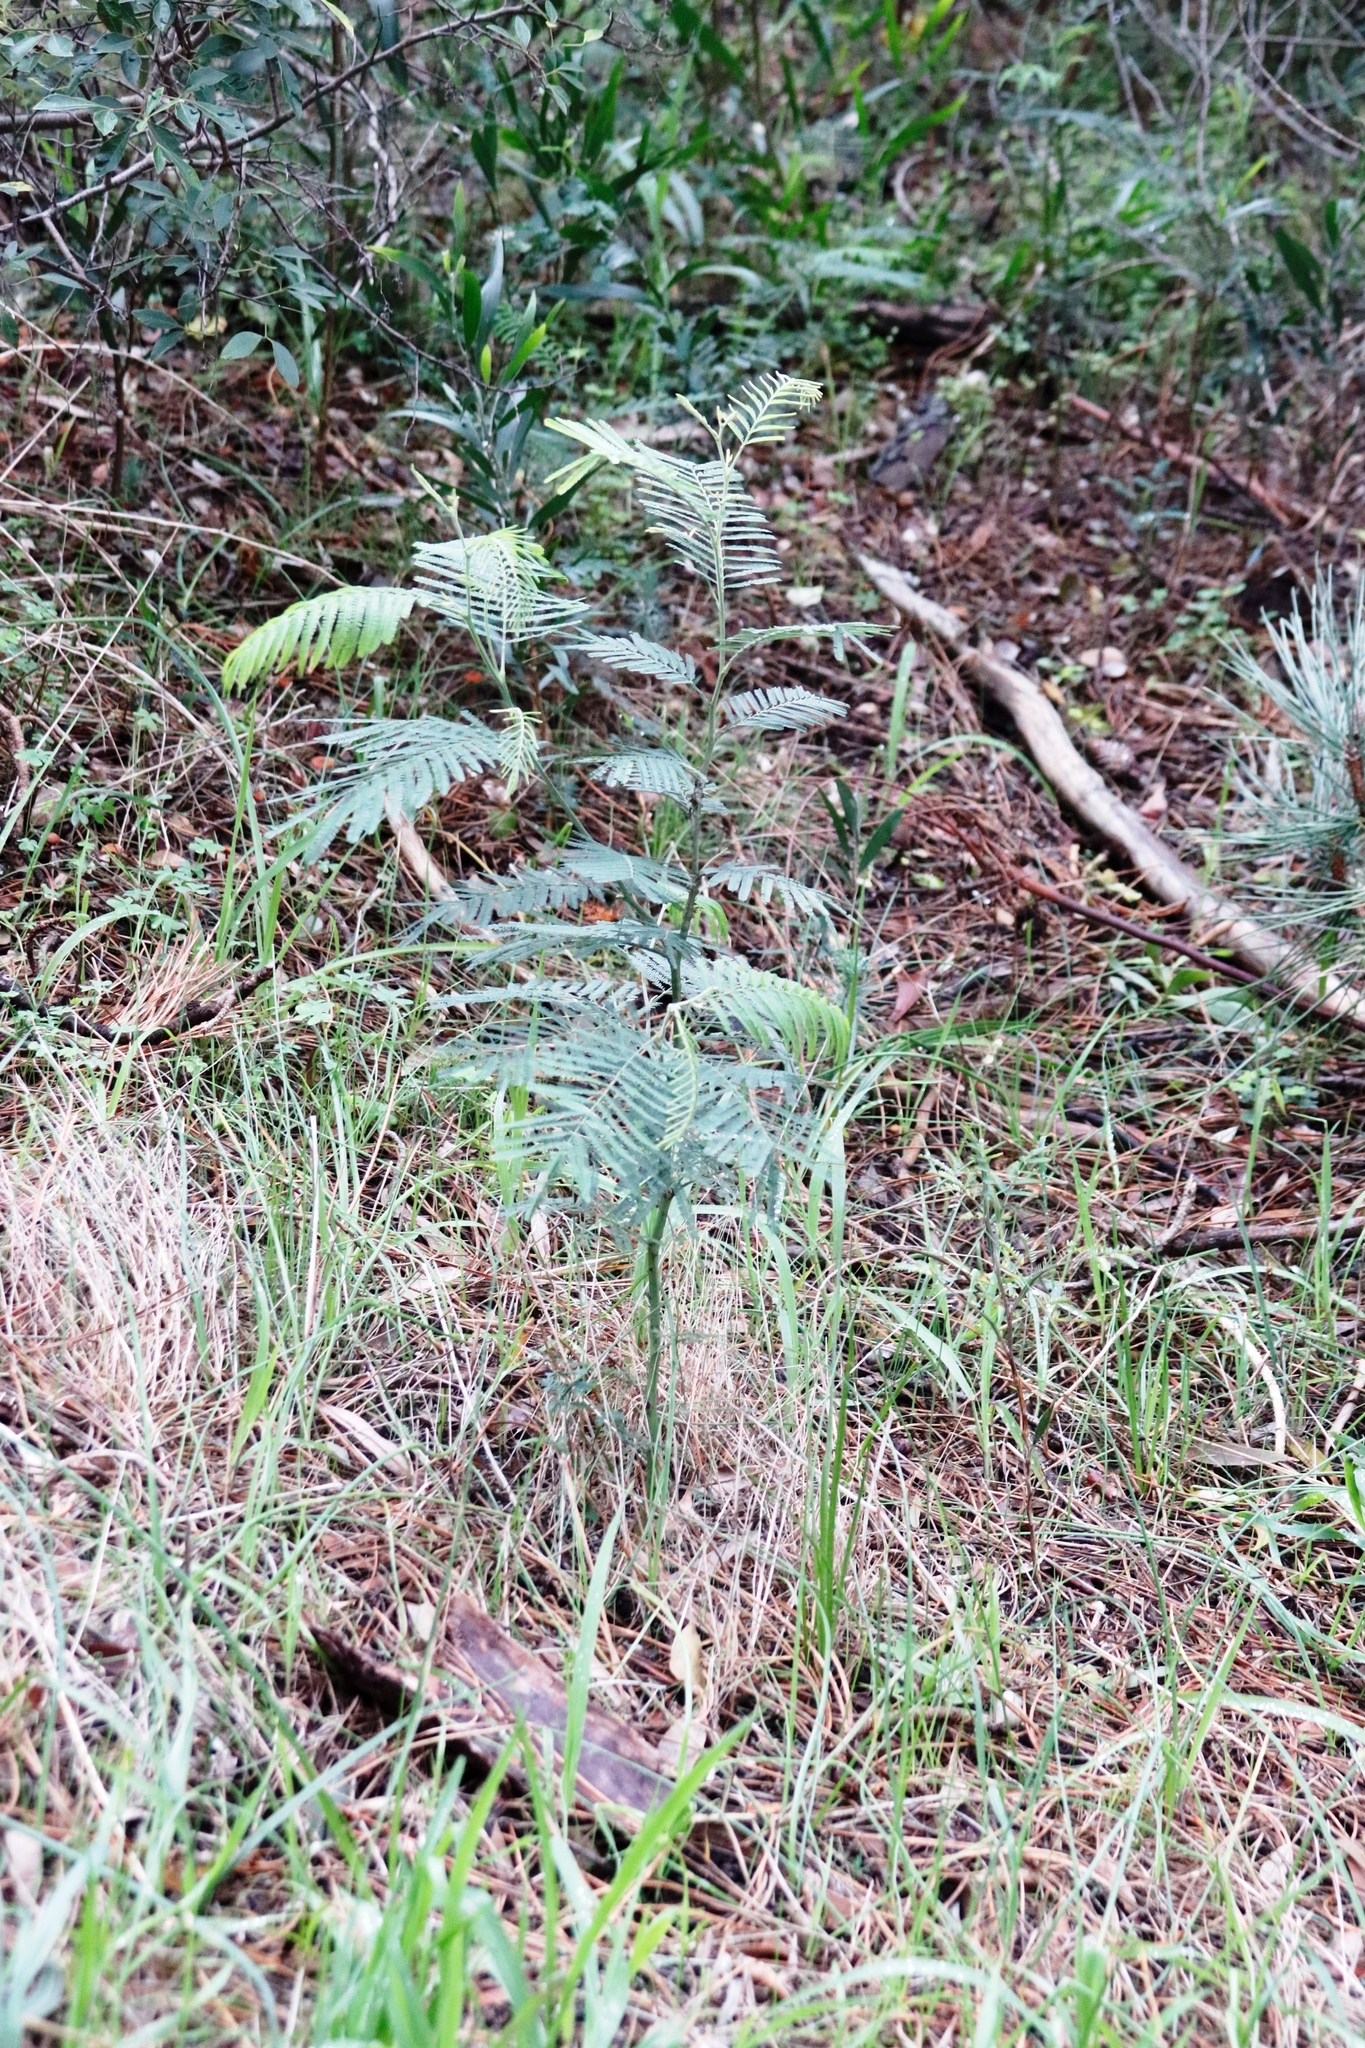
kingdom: Plantae
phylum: Tracheophyta
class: Magnoliopsida
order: Fabales
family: Fabaceae
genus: Acacia
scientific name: Acacia mearnsii
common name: Black wattle
